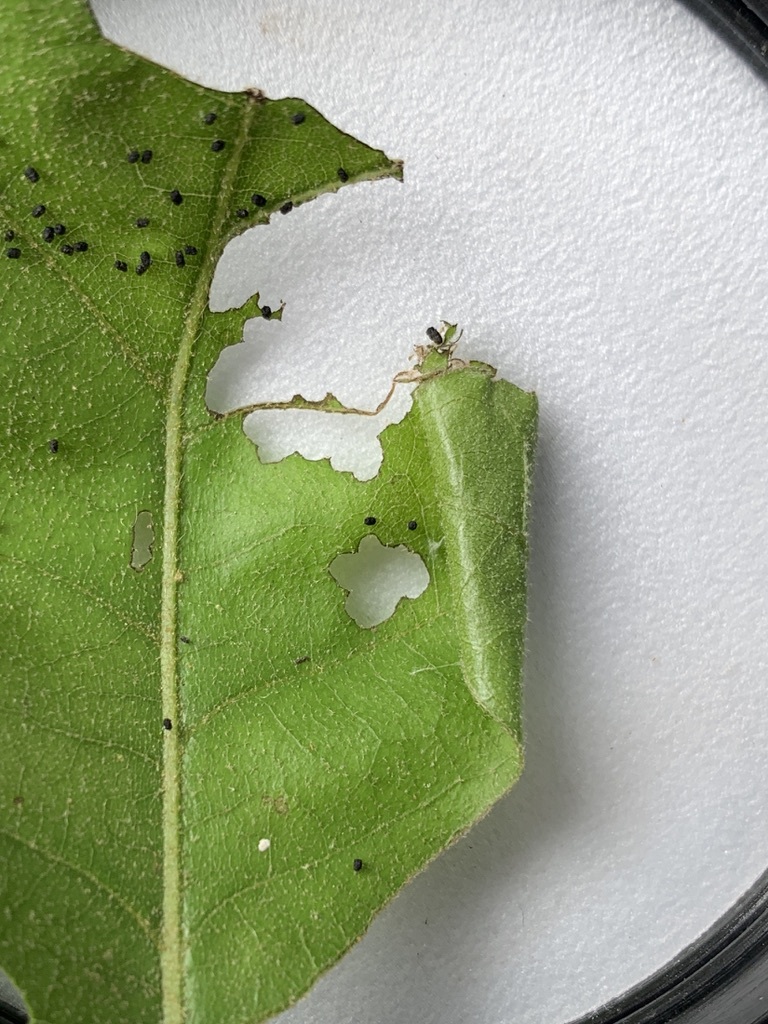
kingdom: Animalia
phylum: Arthropoda
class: Insecta
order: Lepidoptera
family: Gelechiidae
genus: Chionodes
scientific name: Chionodes pereyra
